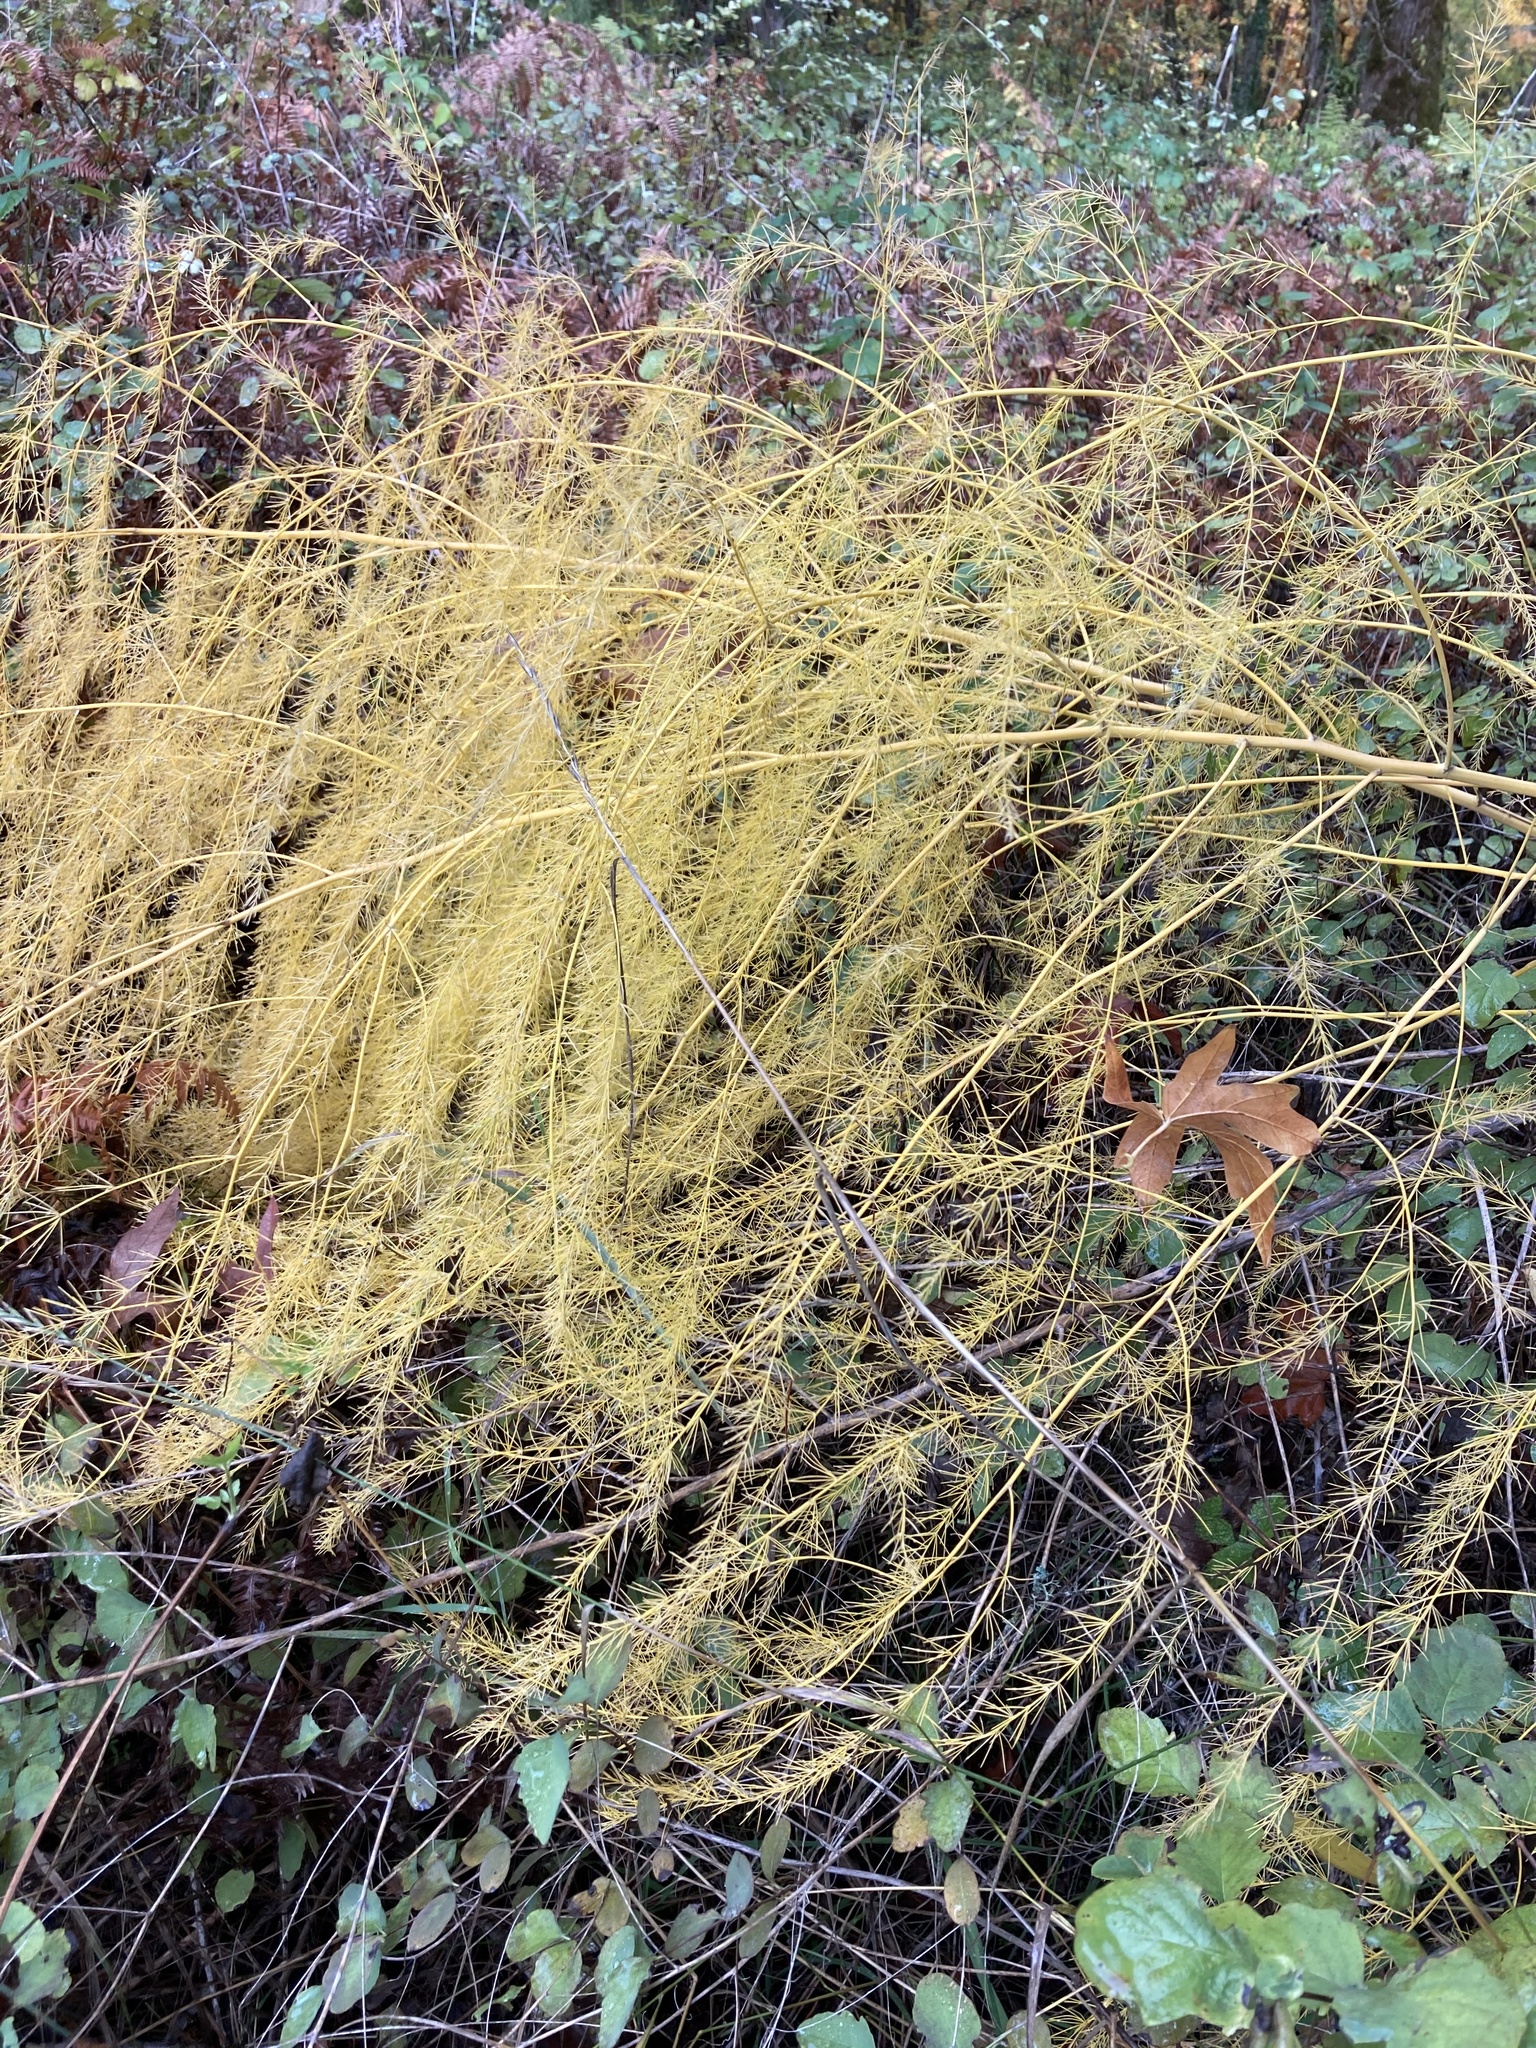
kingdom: Plantae
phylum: Tracheophyta
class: Liliopsida
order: Asparagales
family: Asparagaceae
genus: Asparagus
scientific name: Asparagus officinalis
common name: Garden asparagus
